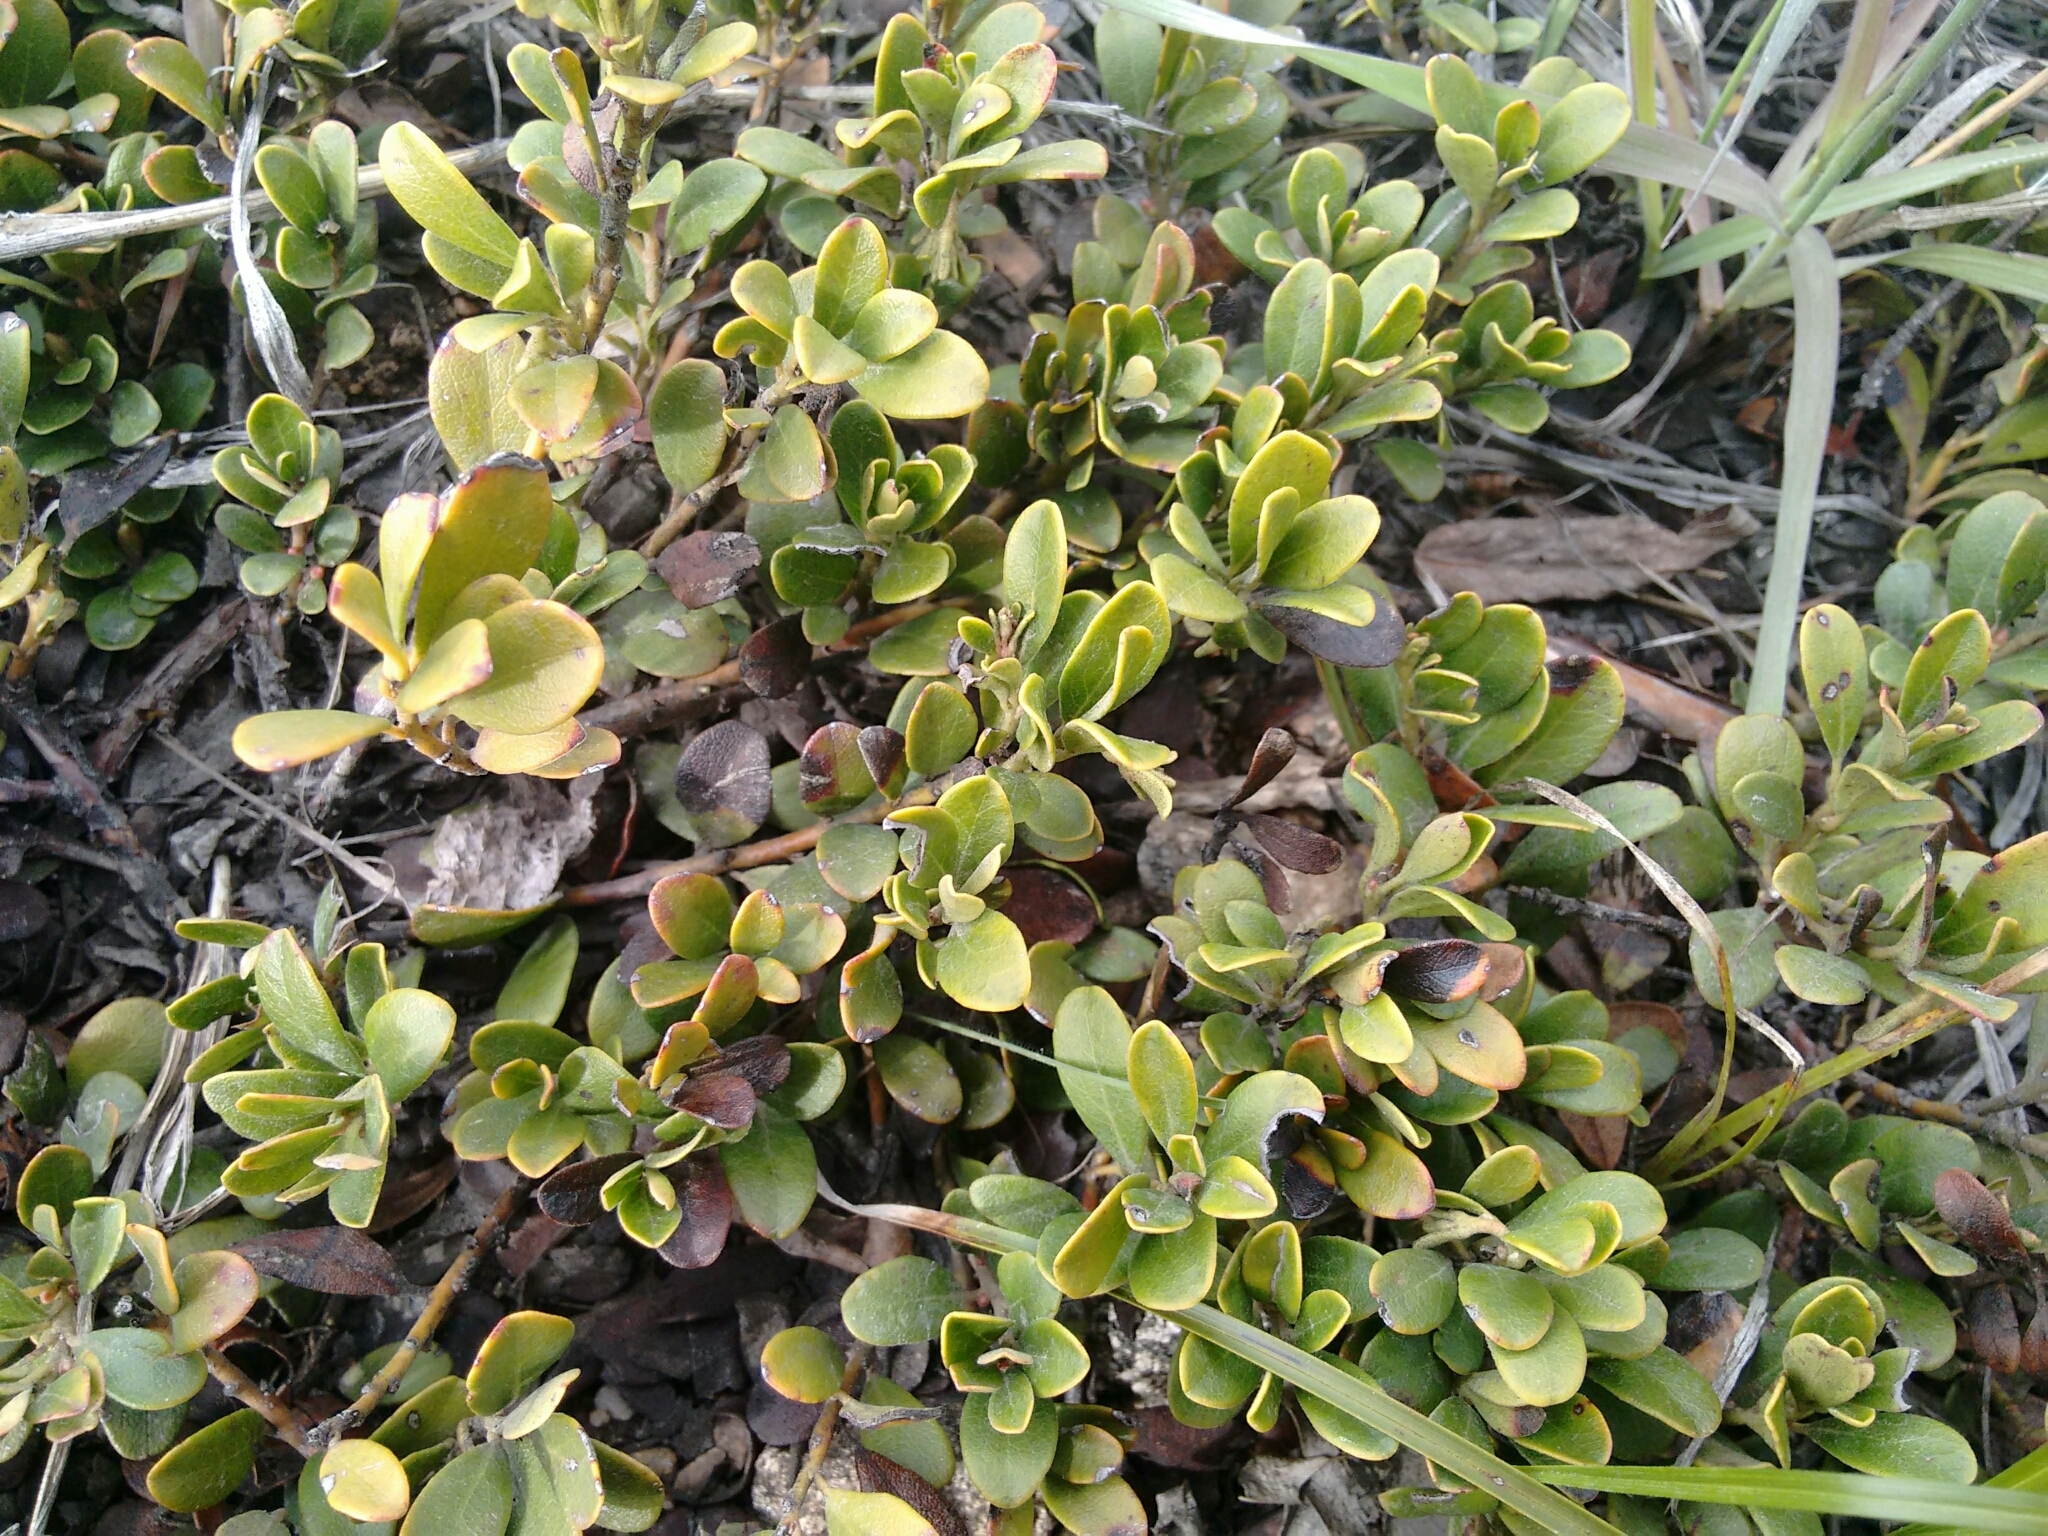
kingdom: Plantae
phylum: Tracheophyta
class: Magnoliopsida
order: Ericales
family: Ericaceae
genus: Arctostaphylos
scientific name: Arctostaphylos uva-ursi
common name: Bearberry
